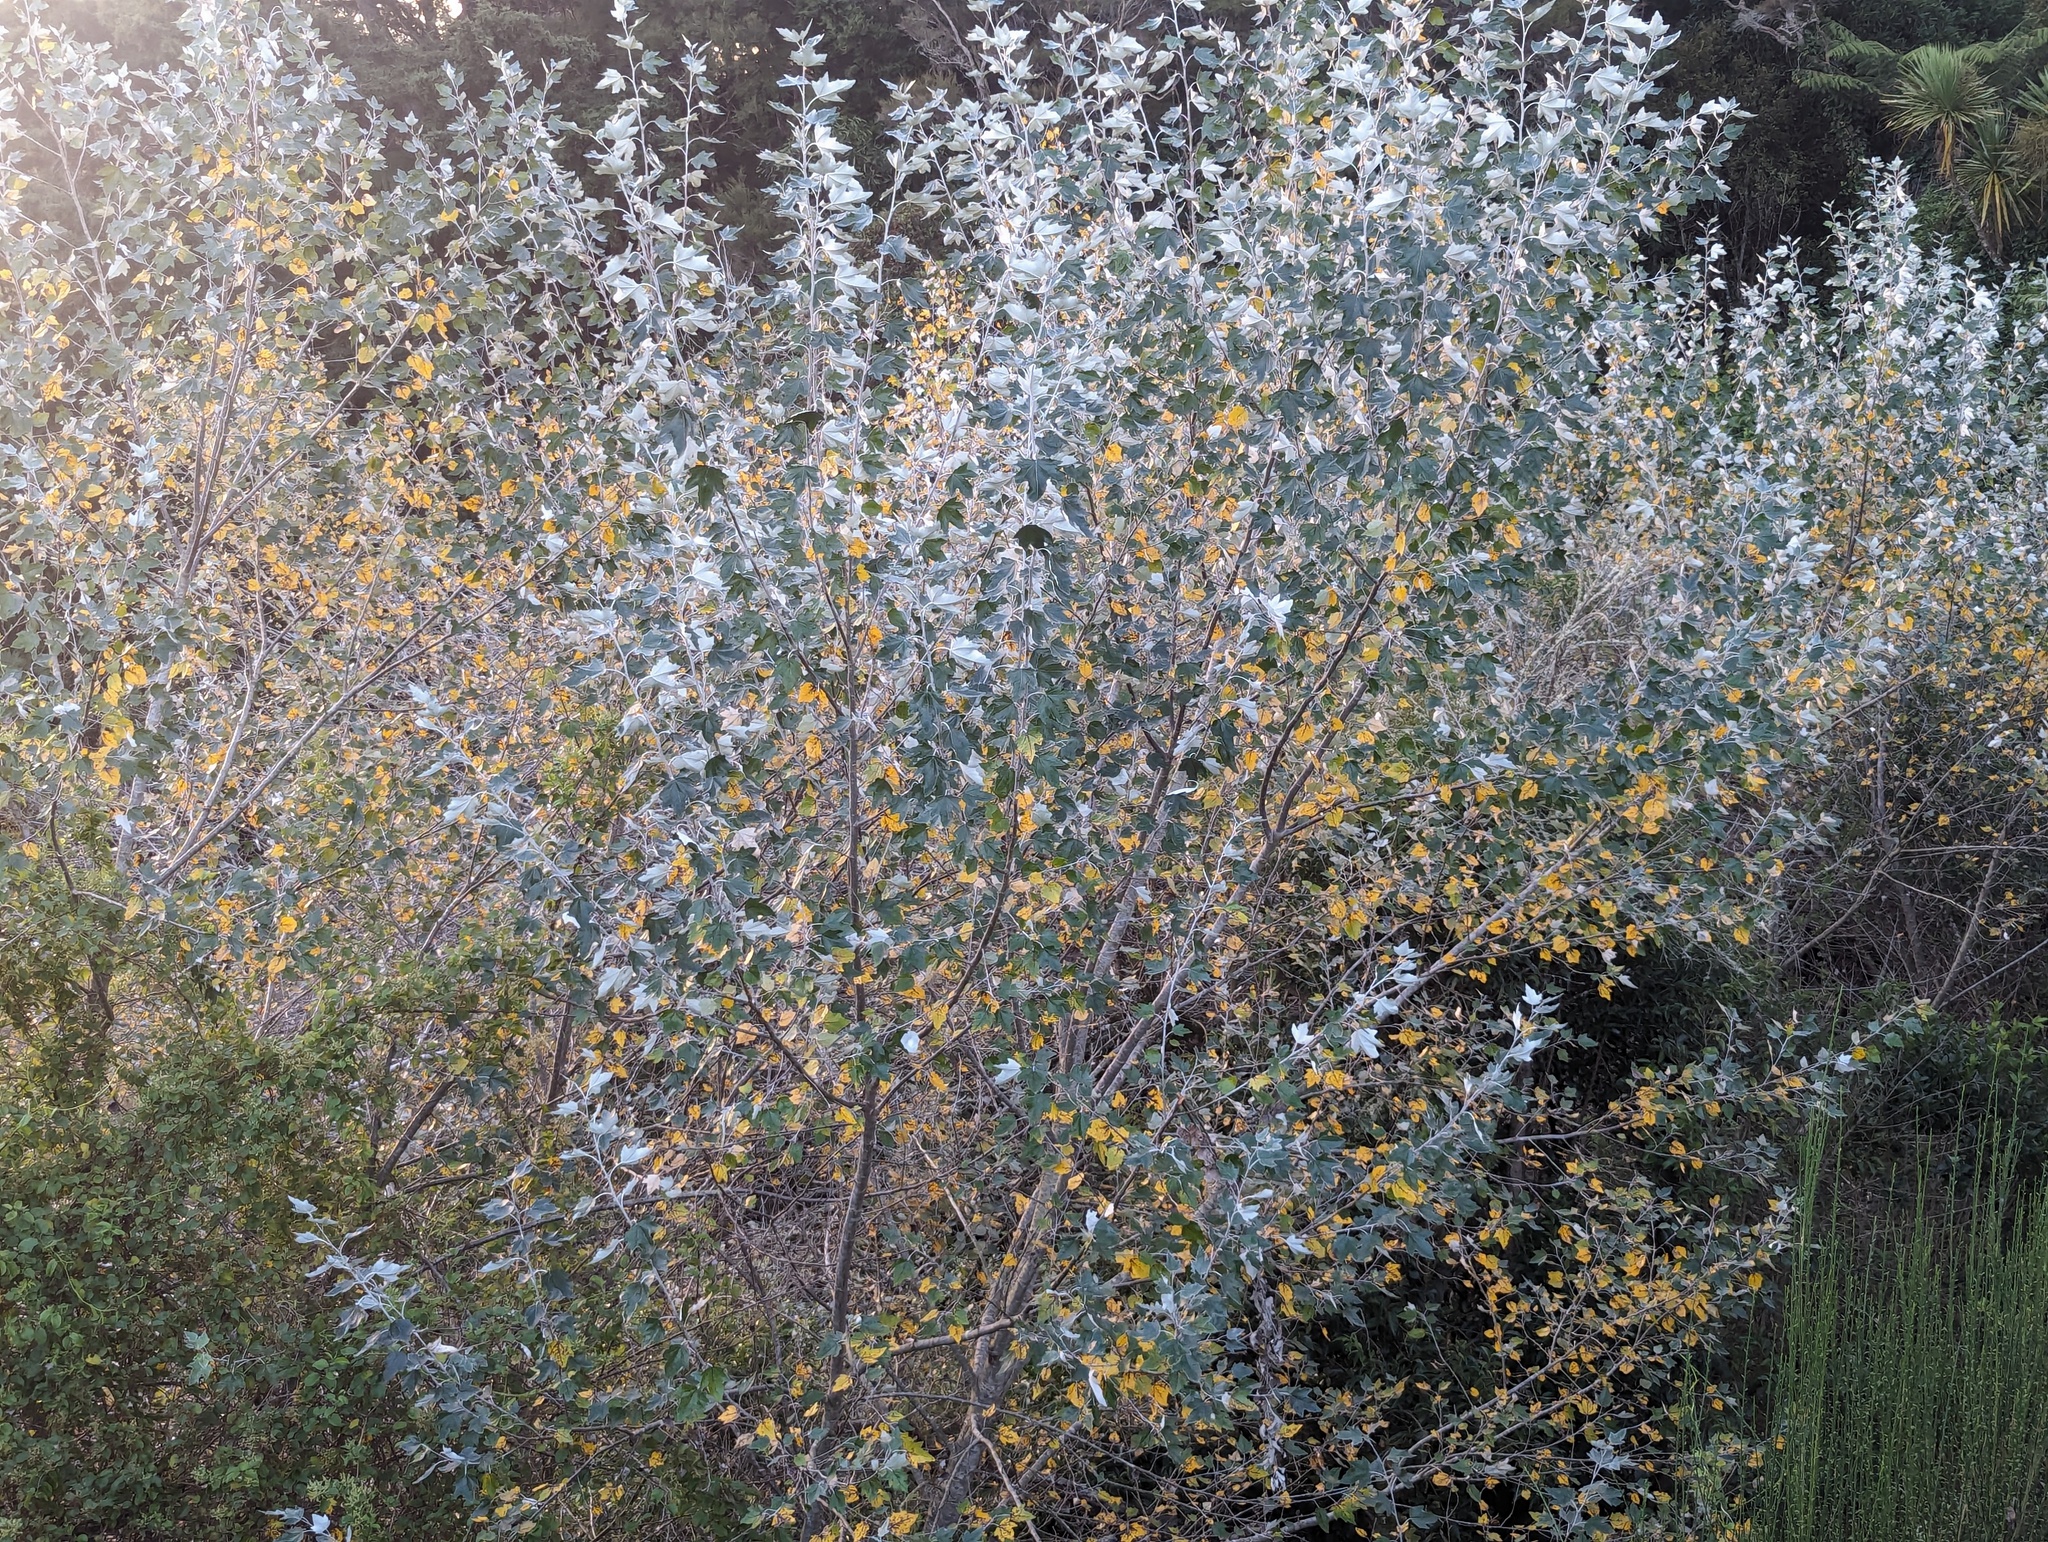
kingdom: Plantae
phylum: Tracheophyta
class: Magnoliopsida
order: Malpighiales
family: Salicaceae
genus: Populus
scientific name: Populus alba
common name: White poplar
